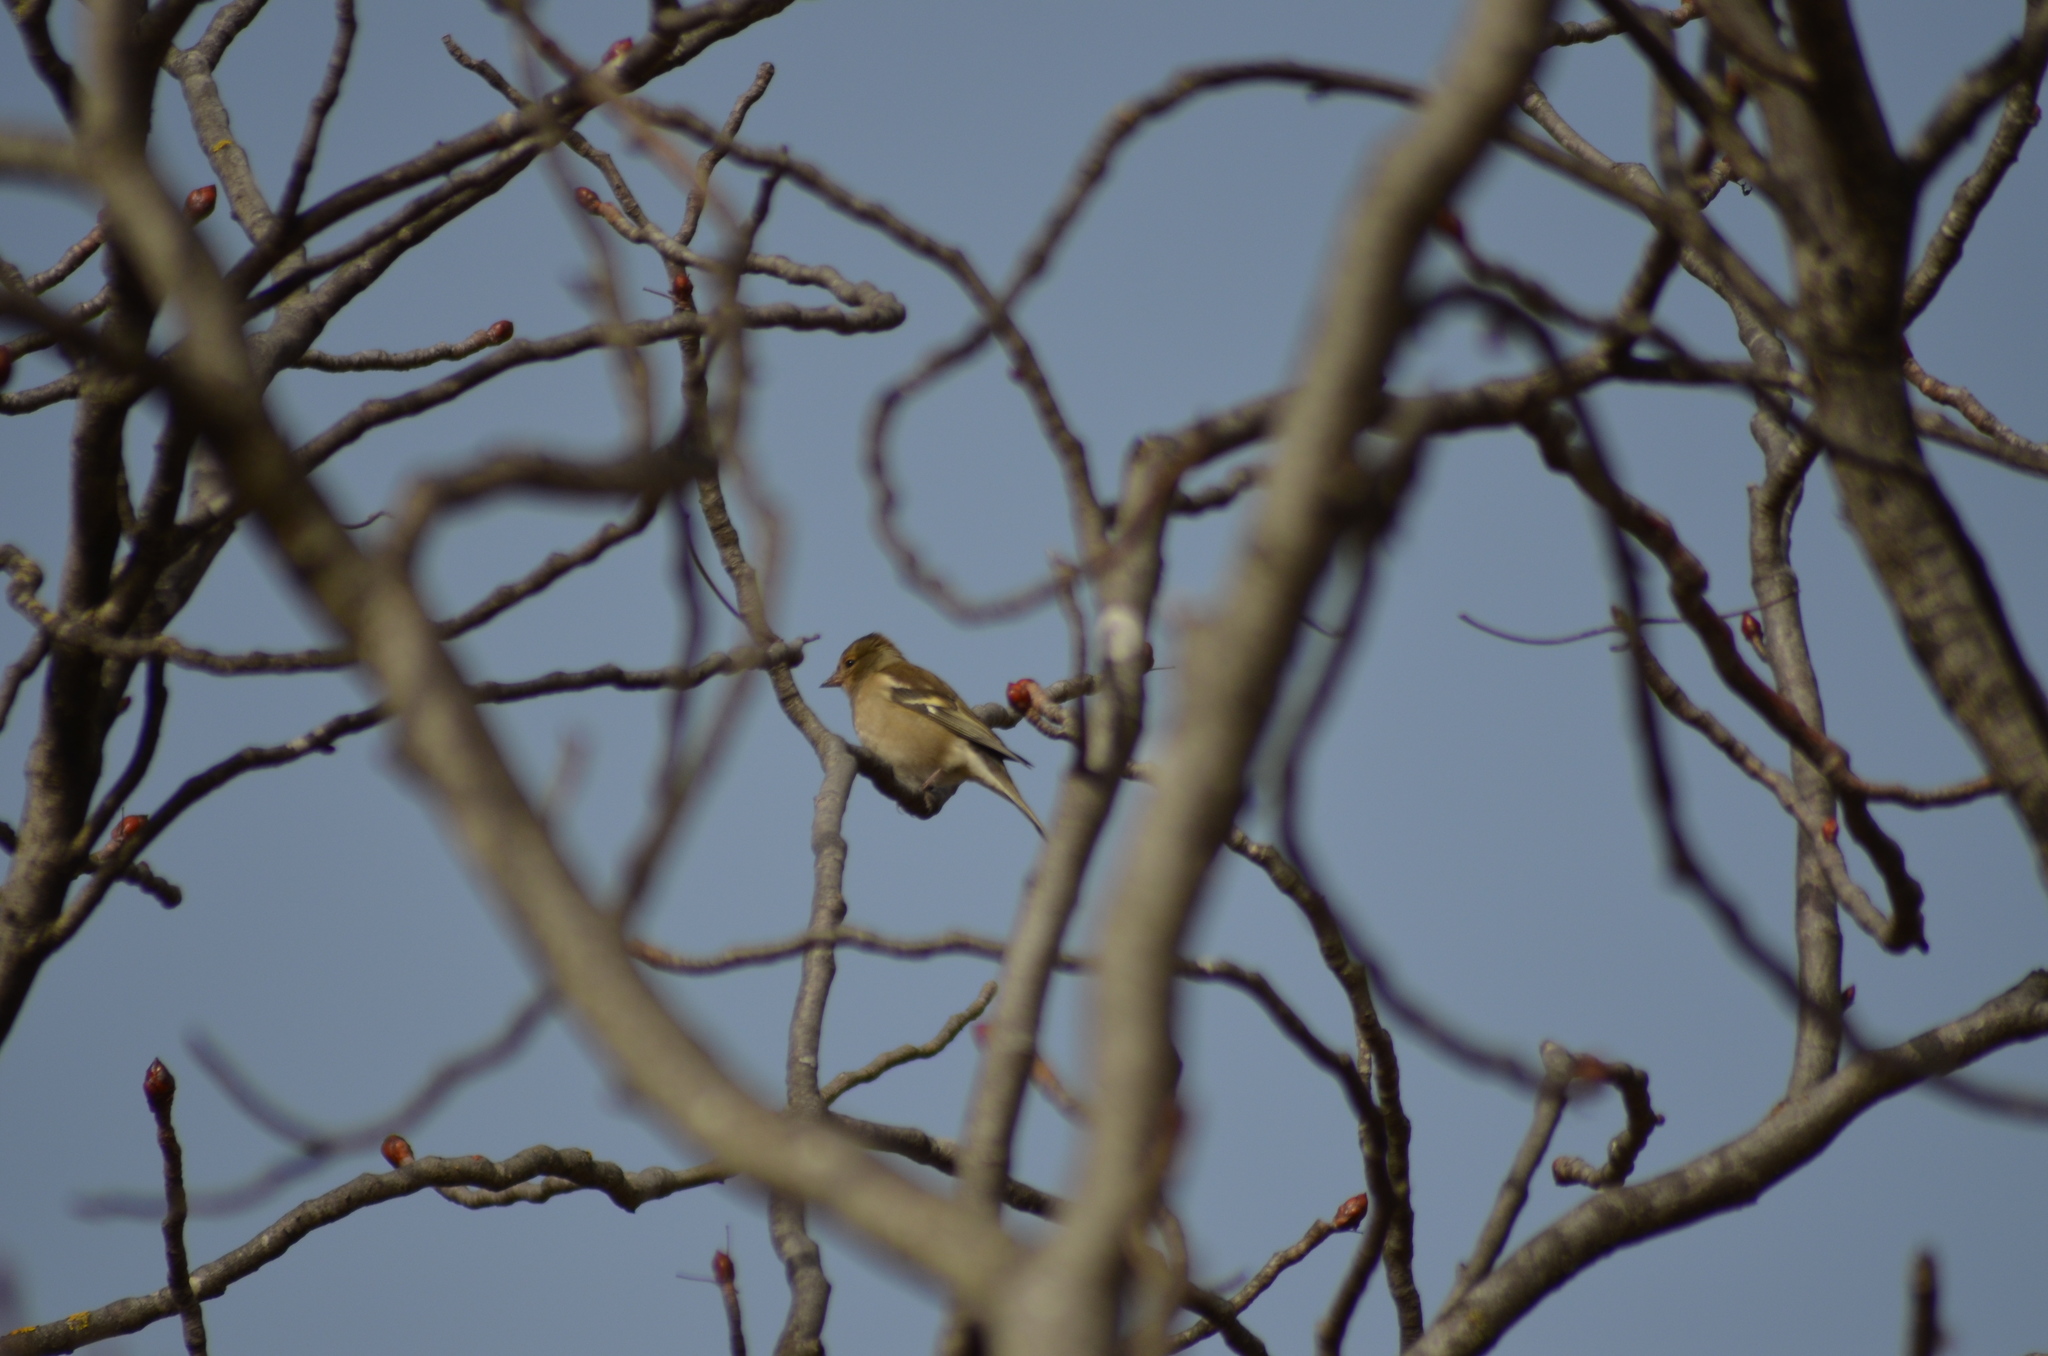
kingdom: Animalia
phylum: Chordata
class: Aves
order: Passeriformes
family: Fringillidae
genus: Fringilla
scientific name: Fringilla coelebs
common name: Common chaffinch
